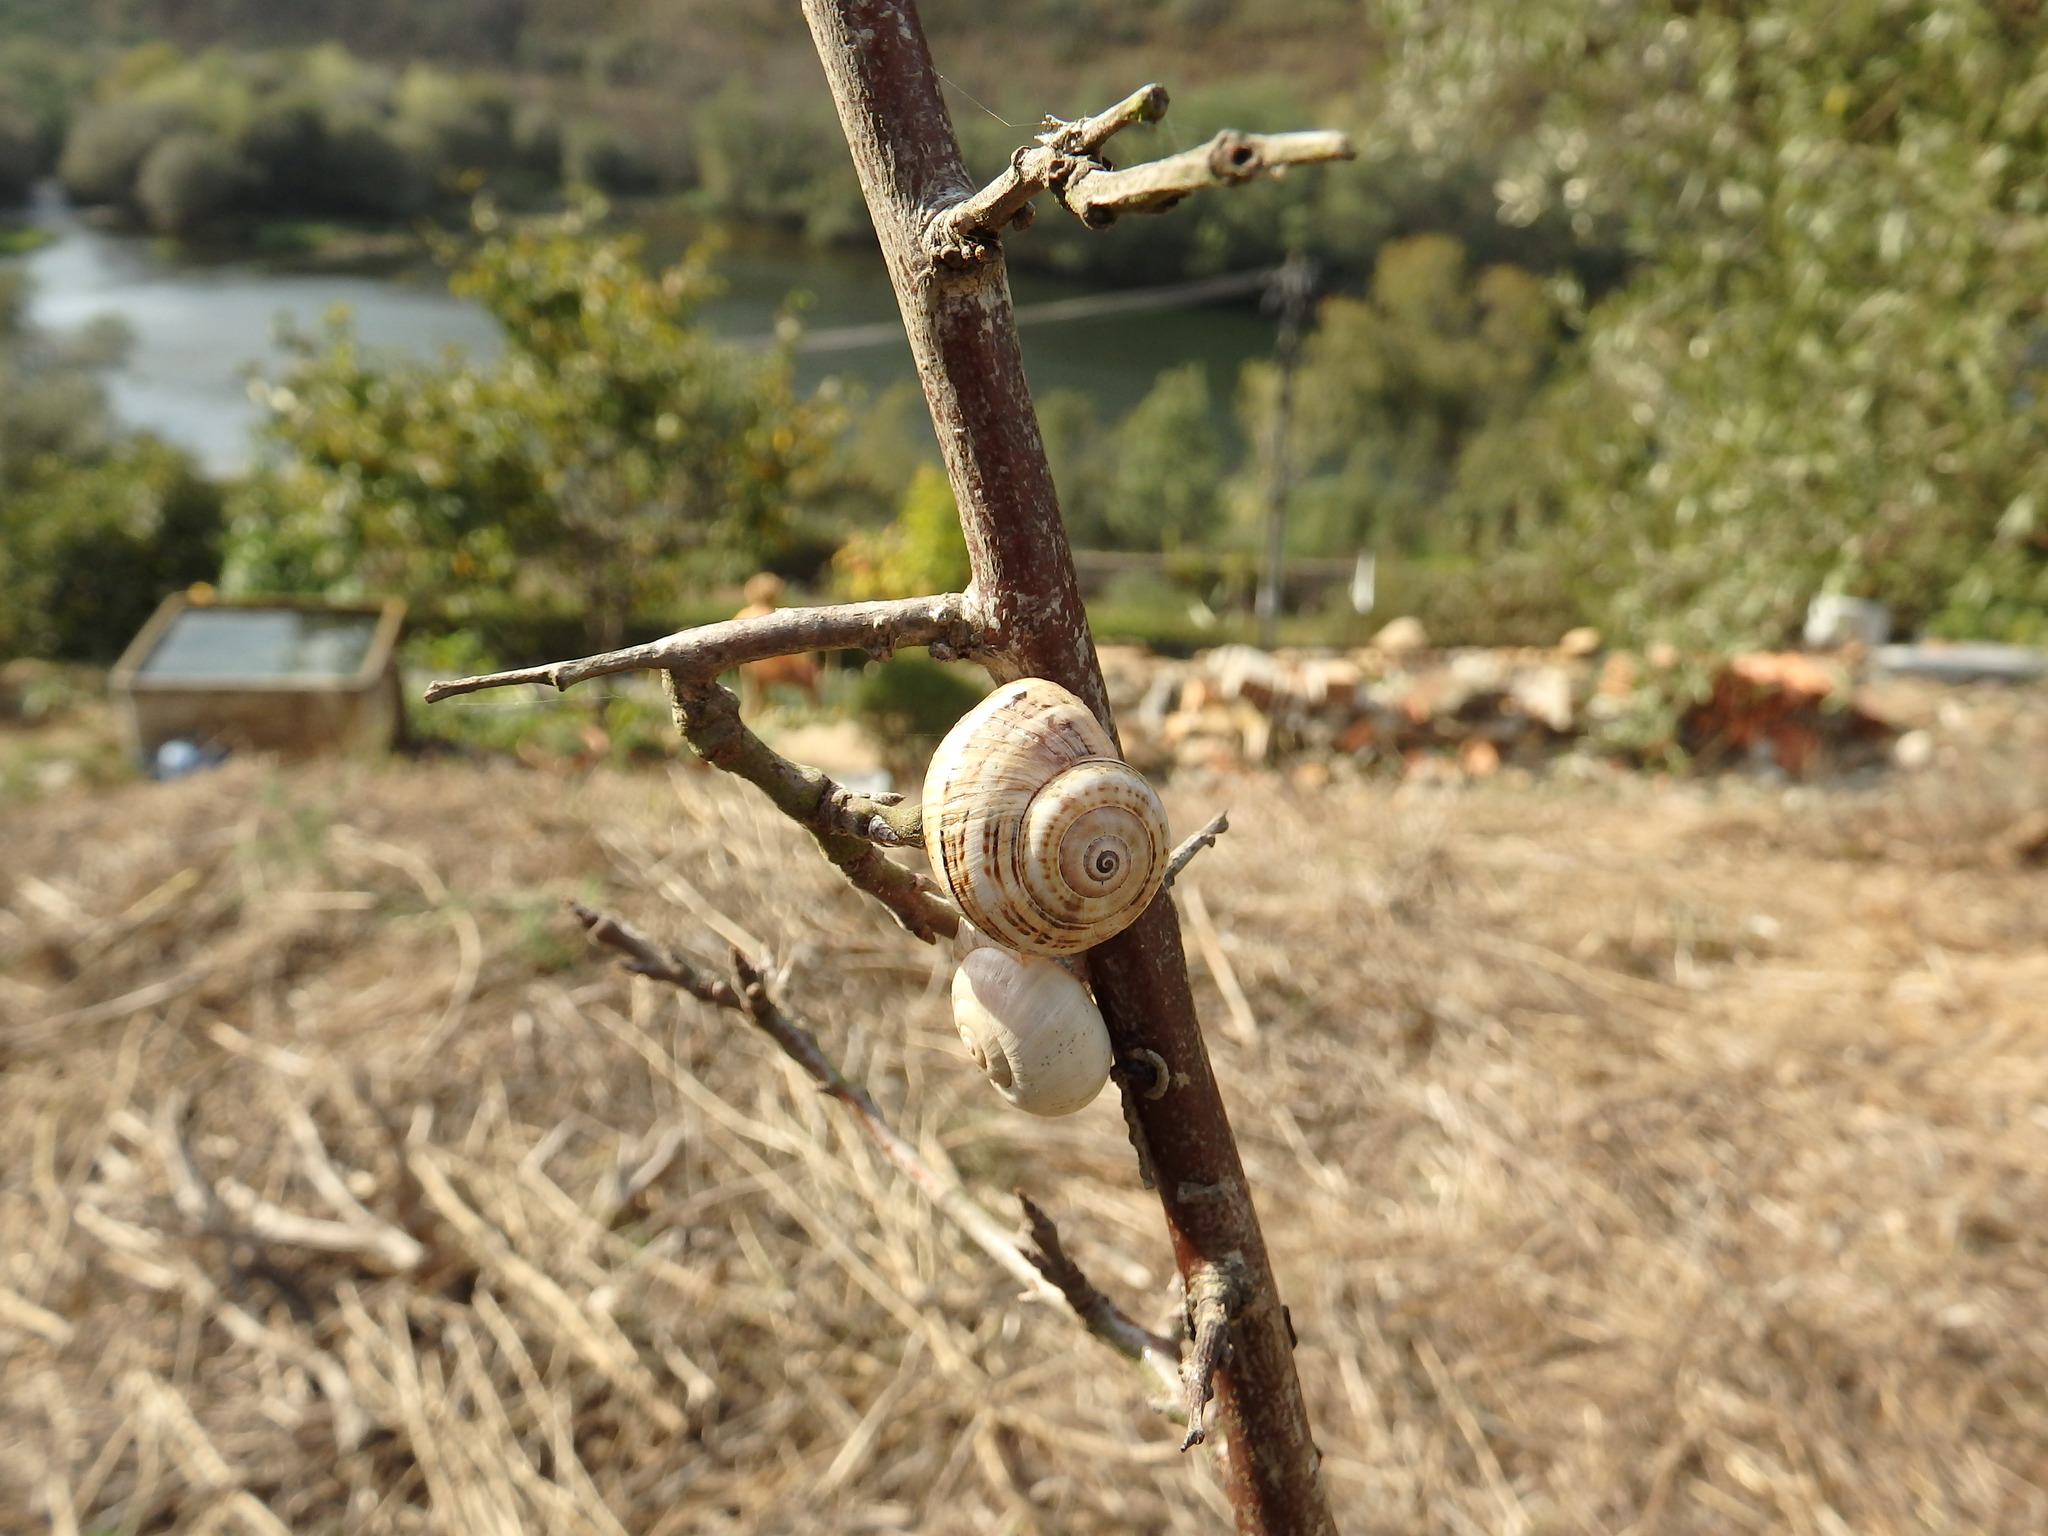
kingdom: Animalia
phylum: Mollusca
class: Gastropoda
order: Stylommatophora
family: Helicidae
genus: Theba
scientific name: Theba pisana
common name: White snail
